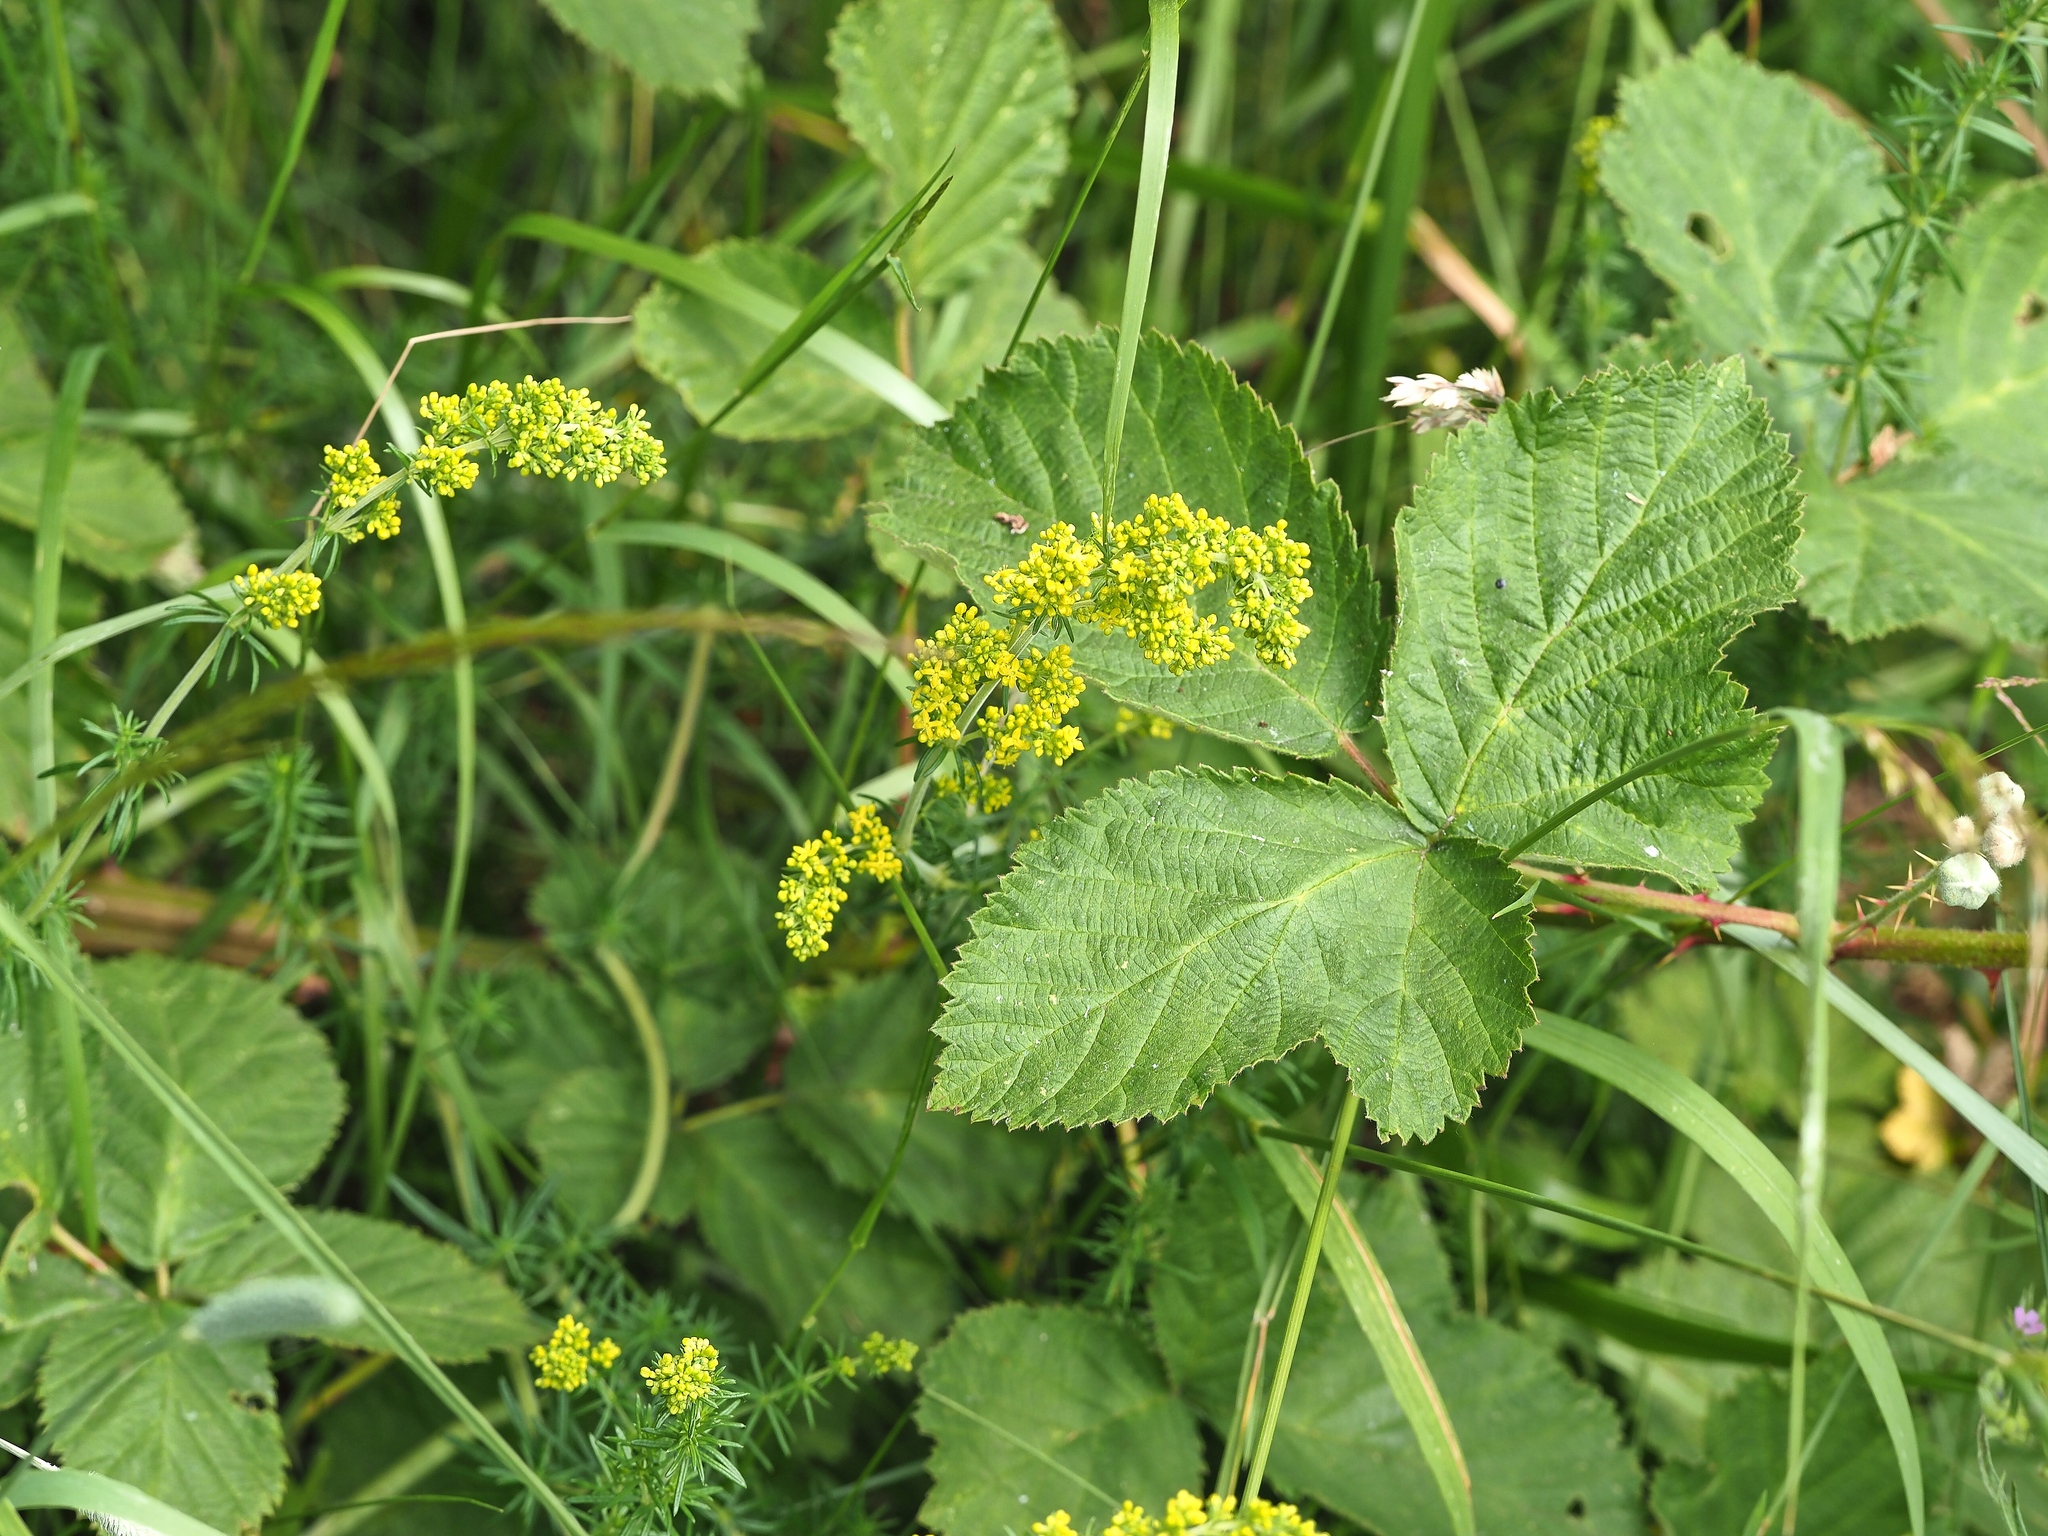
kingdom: Plantae
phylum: Tracheophyta
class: Magnoliopsida
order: Gentianales
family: Rubiaceae
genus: Galium
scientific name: Galium verum
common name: Lady's bedstraw
